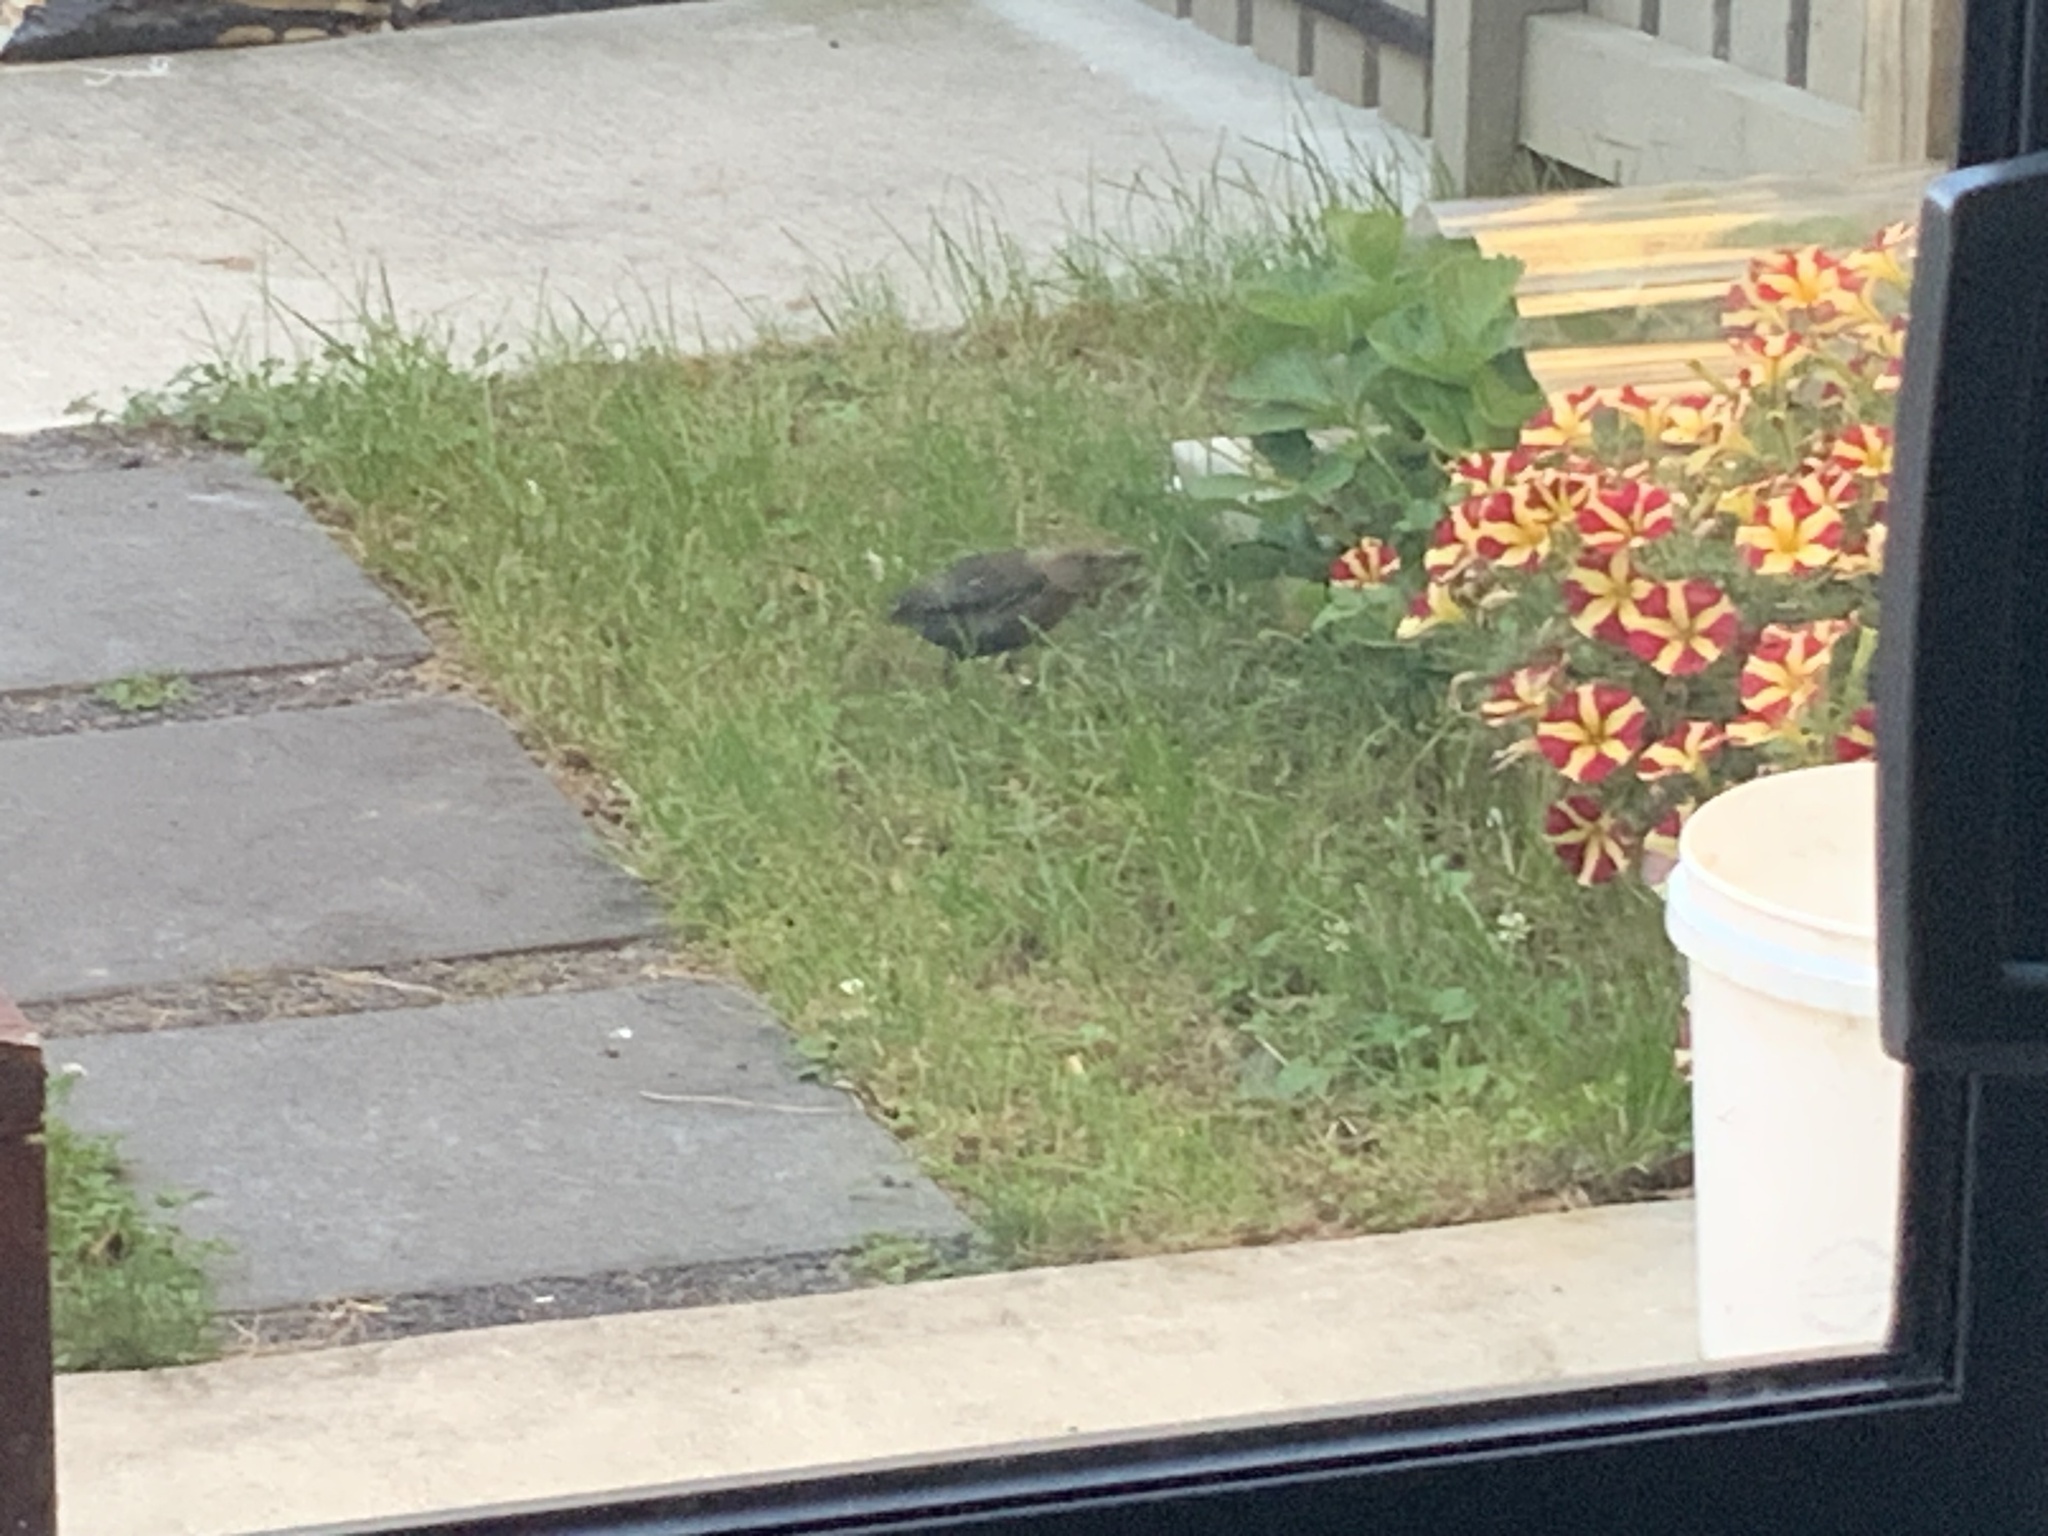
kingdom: Animalia
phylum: Chordata
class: Aves
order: Passeriformes
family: Turdidae
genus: Turdus
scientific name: Turdus merula
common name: Common blackbird
